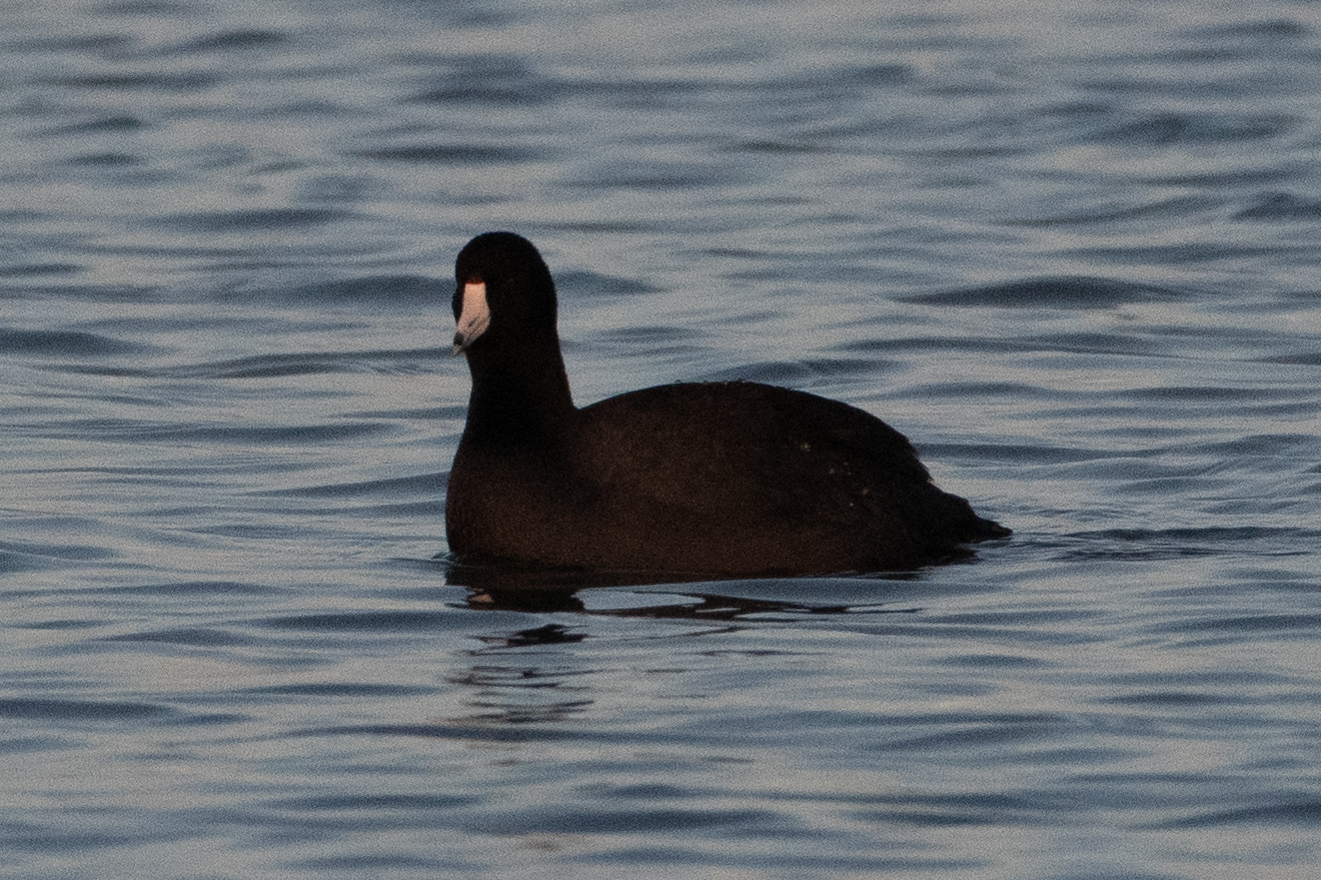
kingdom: Animalia
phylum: Chordata
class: Aves
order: Gruiformes
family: Rallidae
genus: Fulica
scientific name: Fulica americana
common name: American coot
